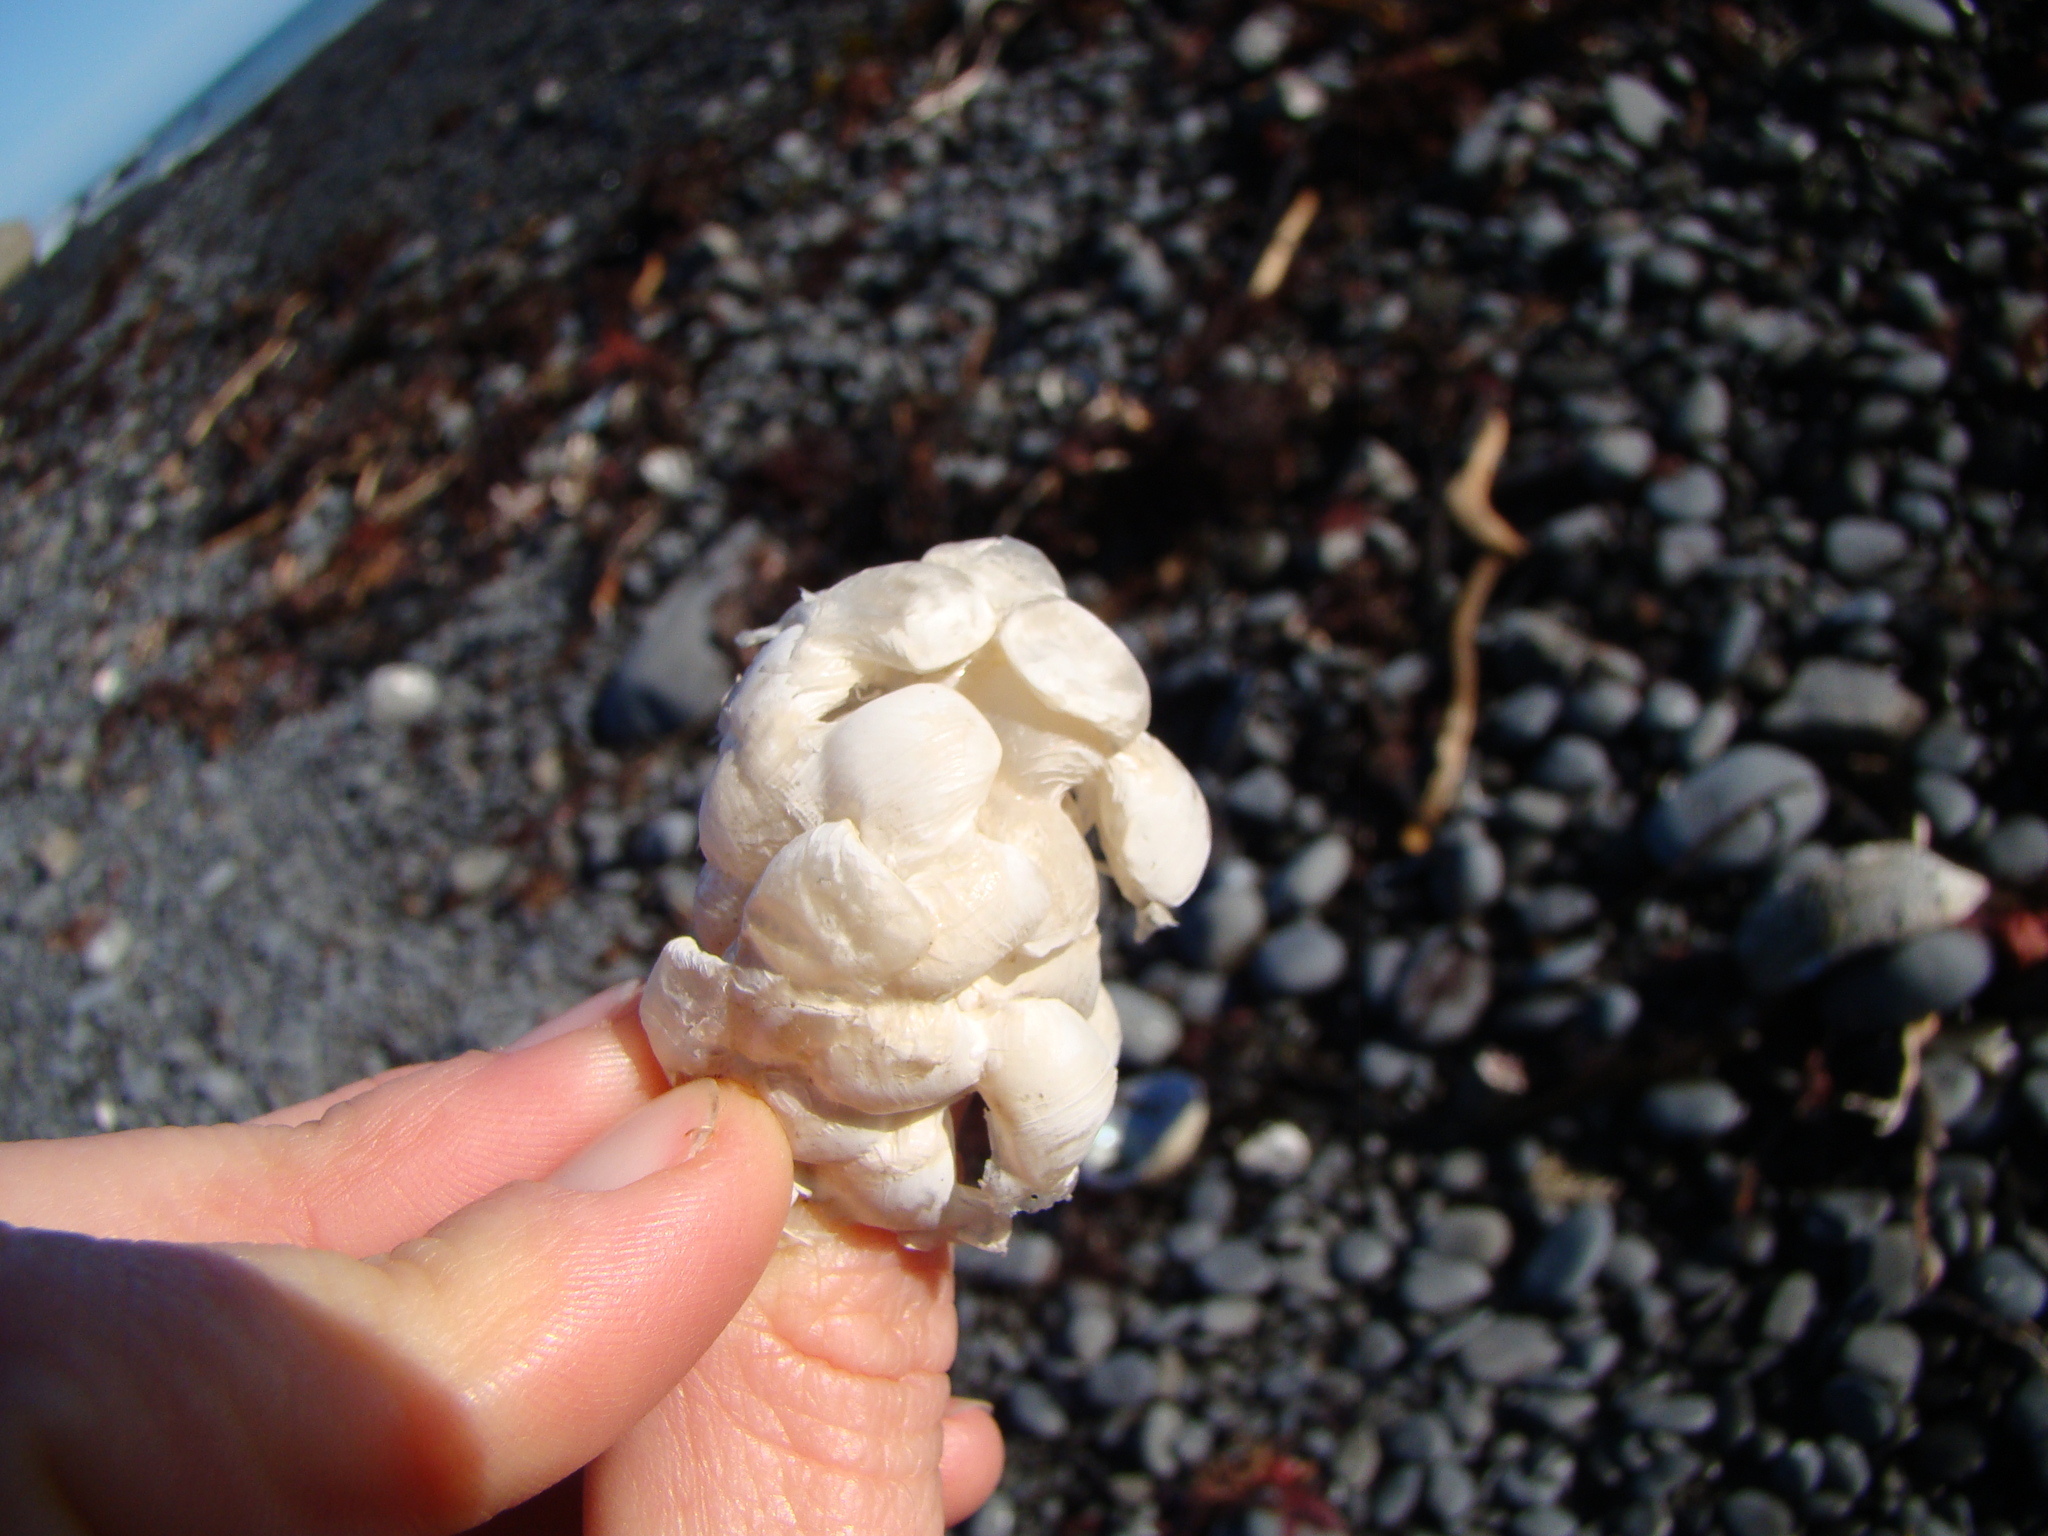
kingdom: Animalia
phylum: Mollusca
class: Gastropoda
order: Neogastropoda
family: Austrosiphonidae
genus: Penion
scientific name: Penion
